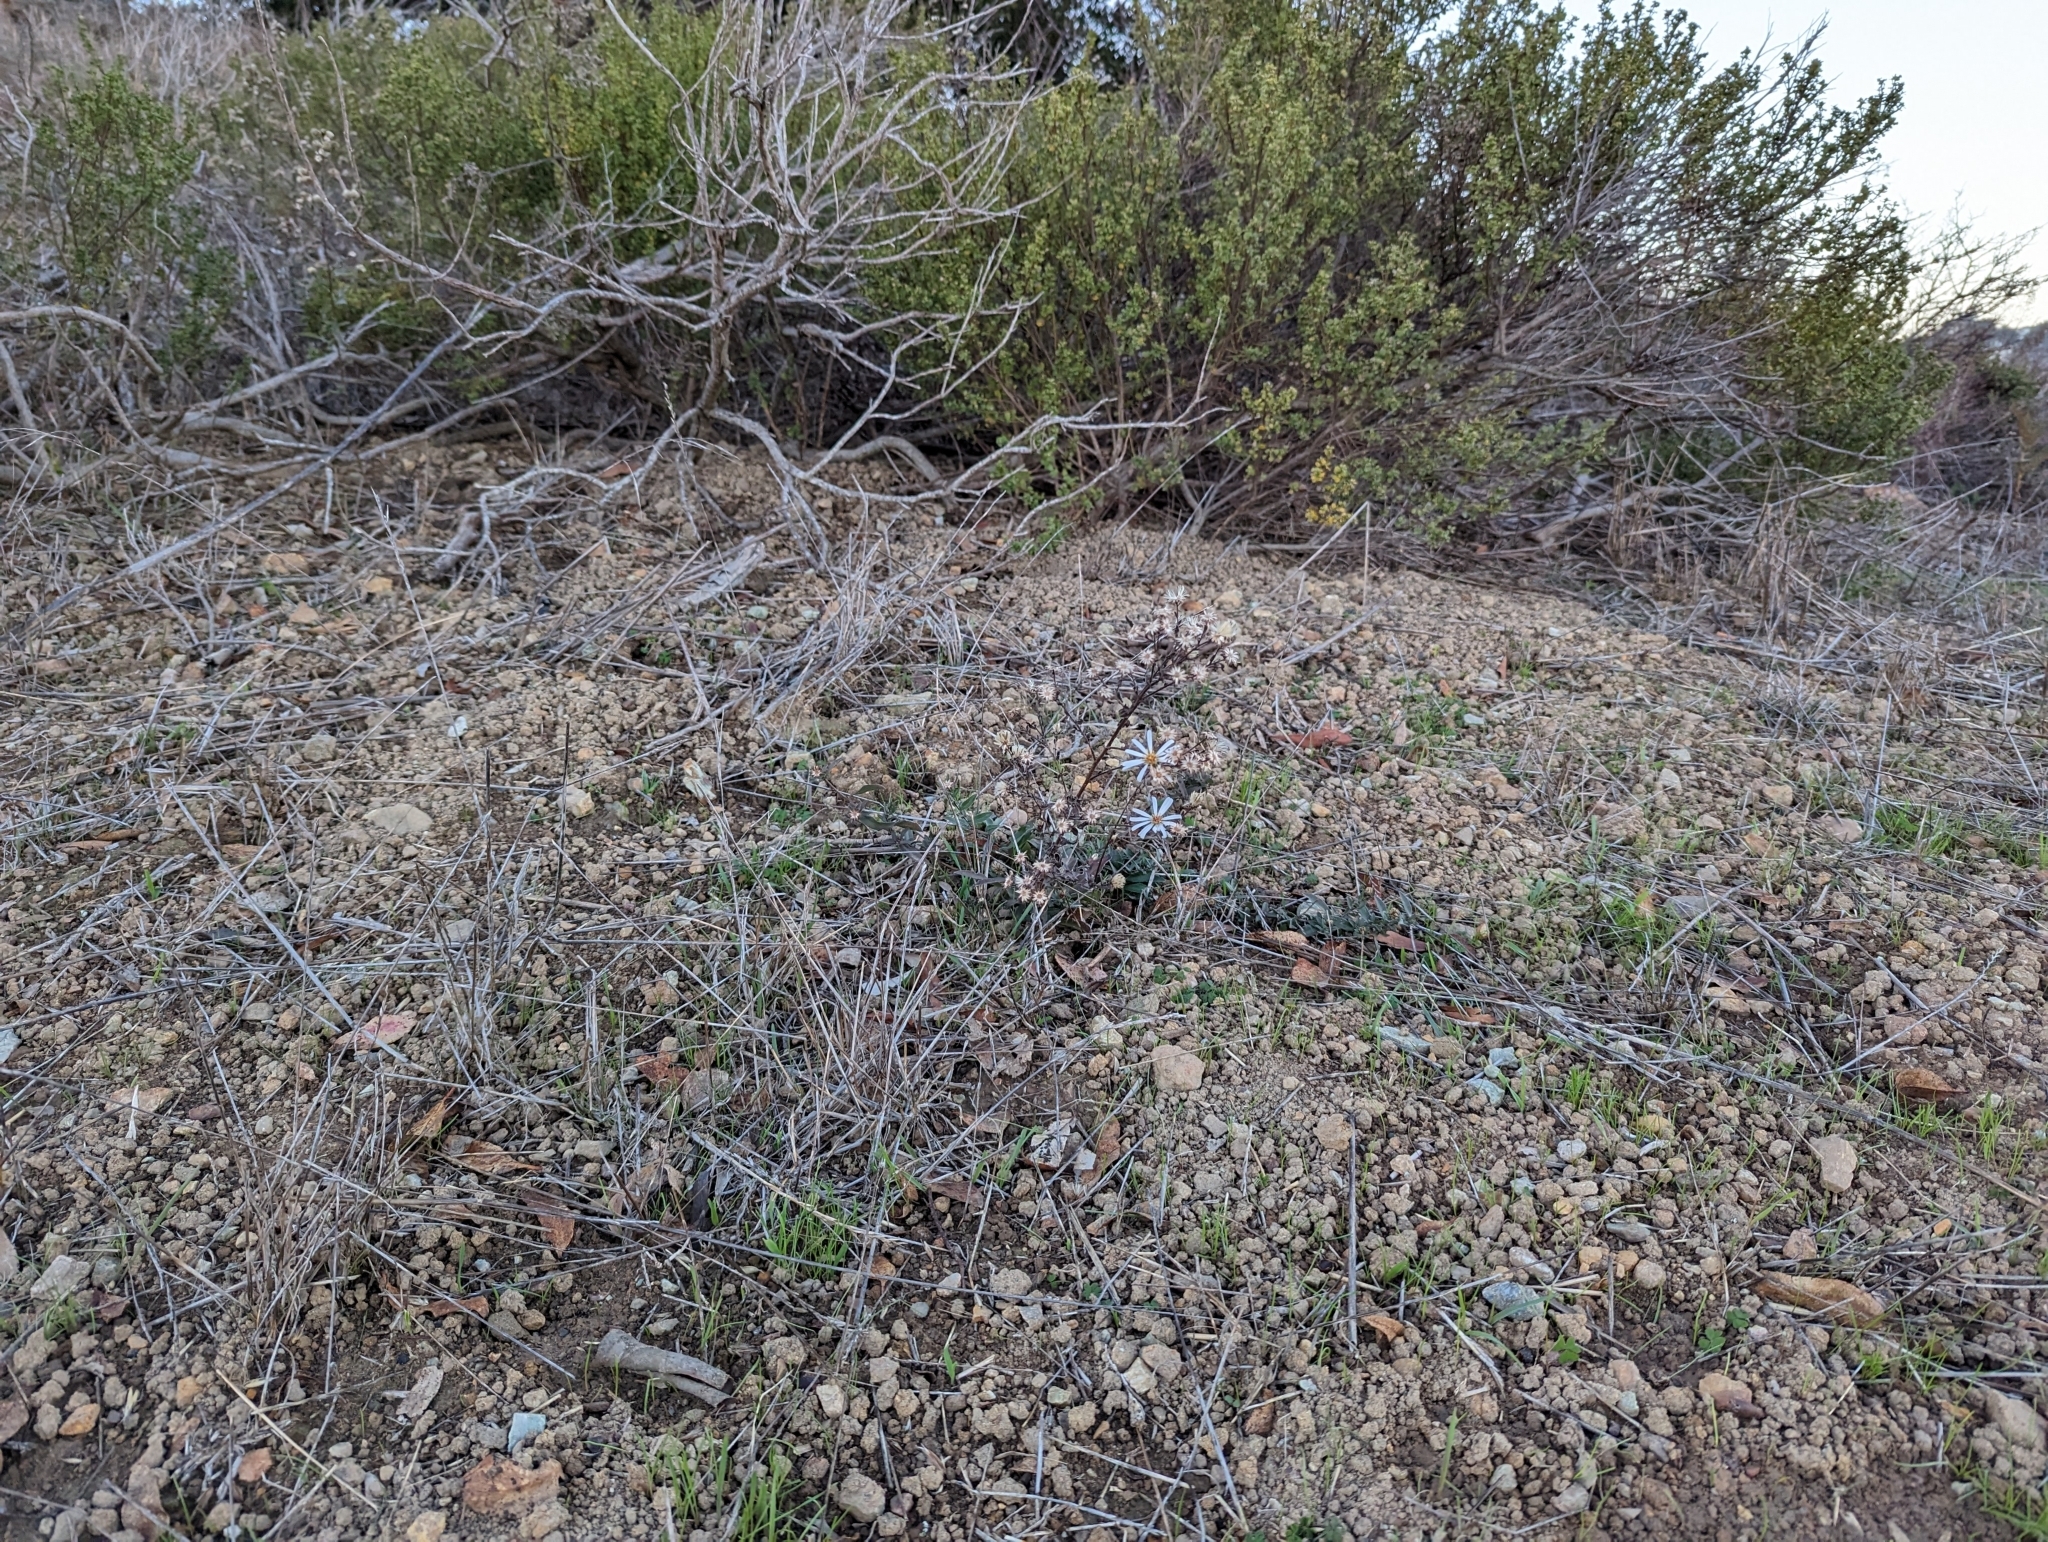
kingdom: Plantae
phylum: Tracheophyta
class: Magnoliopsida
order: Asterales
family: Asteraceae
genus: Symphyotrichum
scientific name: Symphyotrichum chilense
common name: Pacific aster
